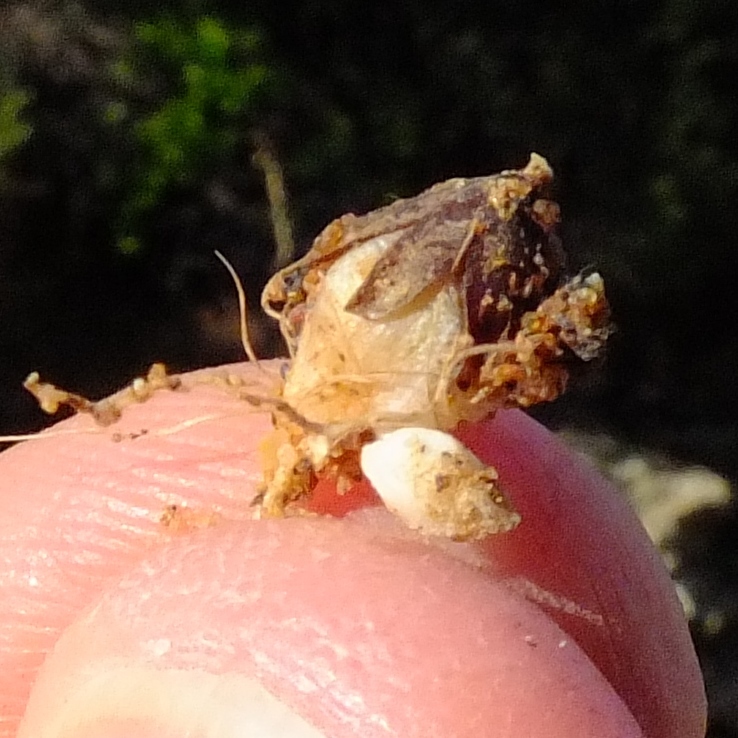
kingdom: Plantae
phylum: Tracheophyta
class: Liliopsida
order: Asparagales
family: Iridaceae
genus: Hesperantha
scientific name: Hesperantha bachmannii
